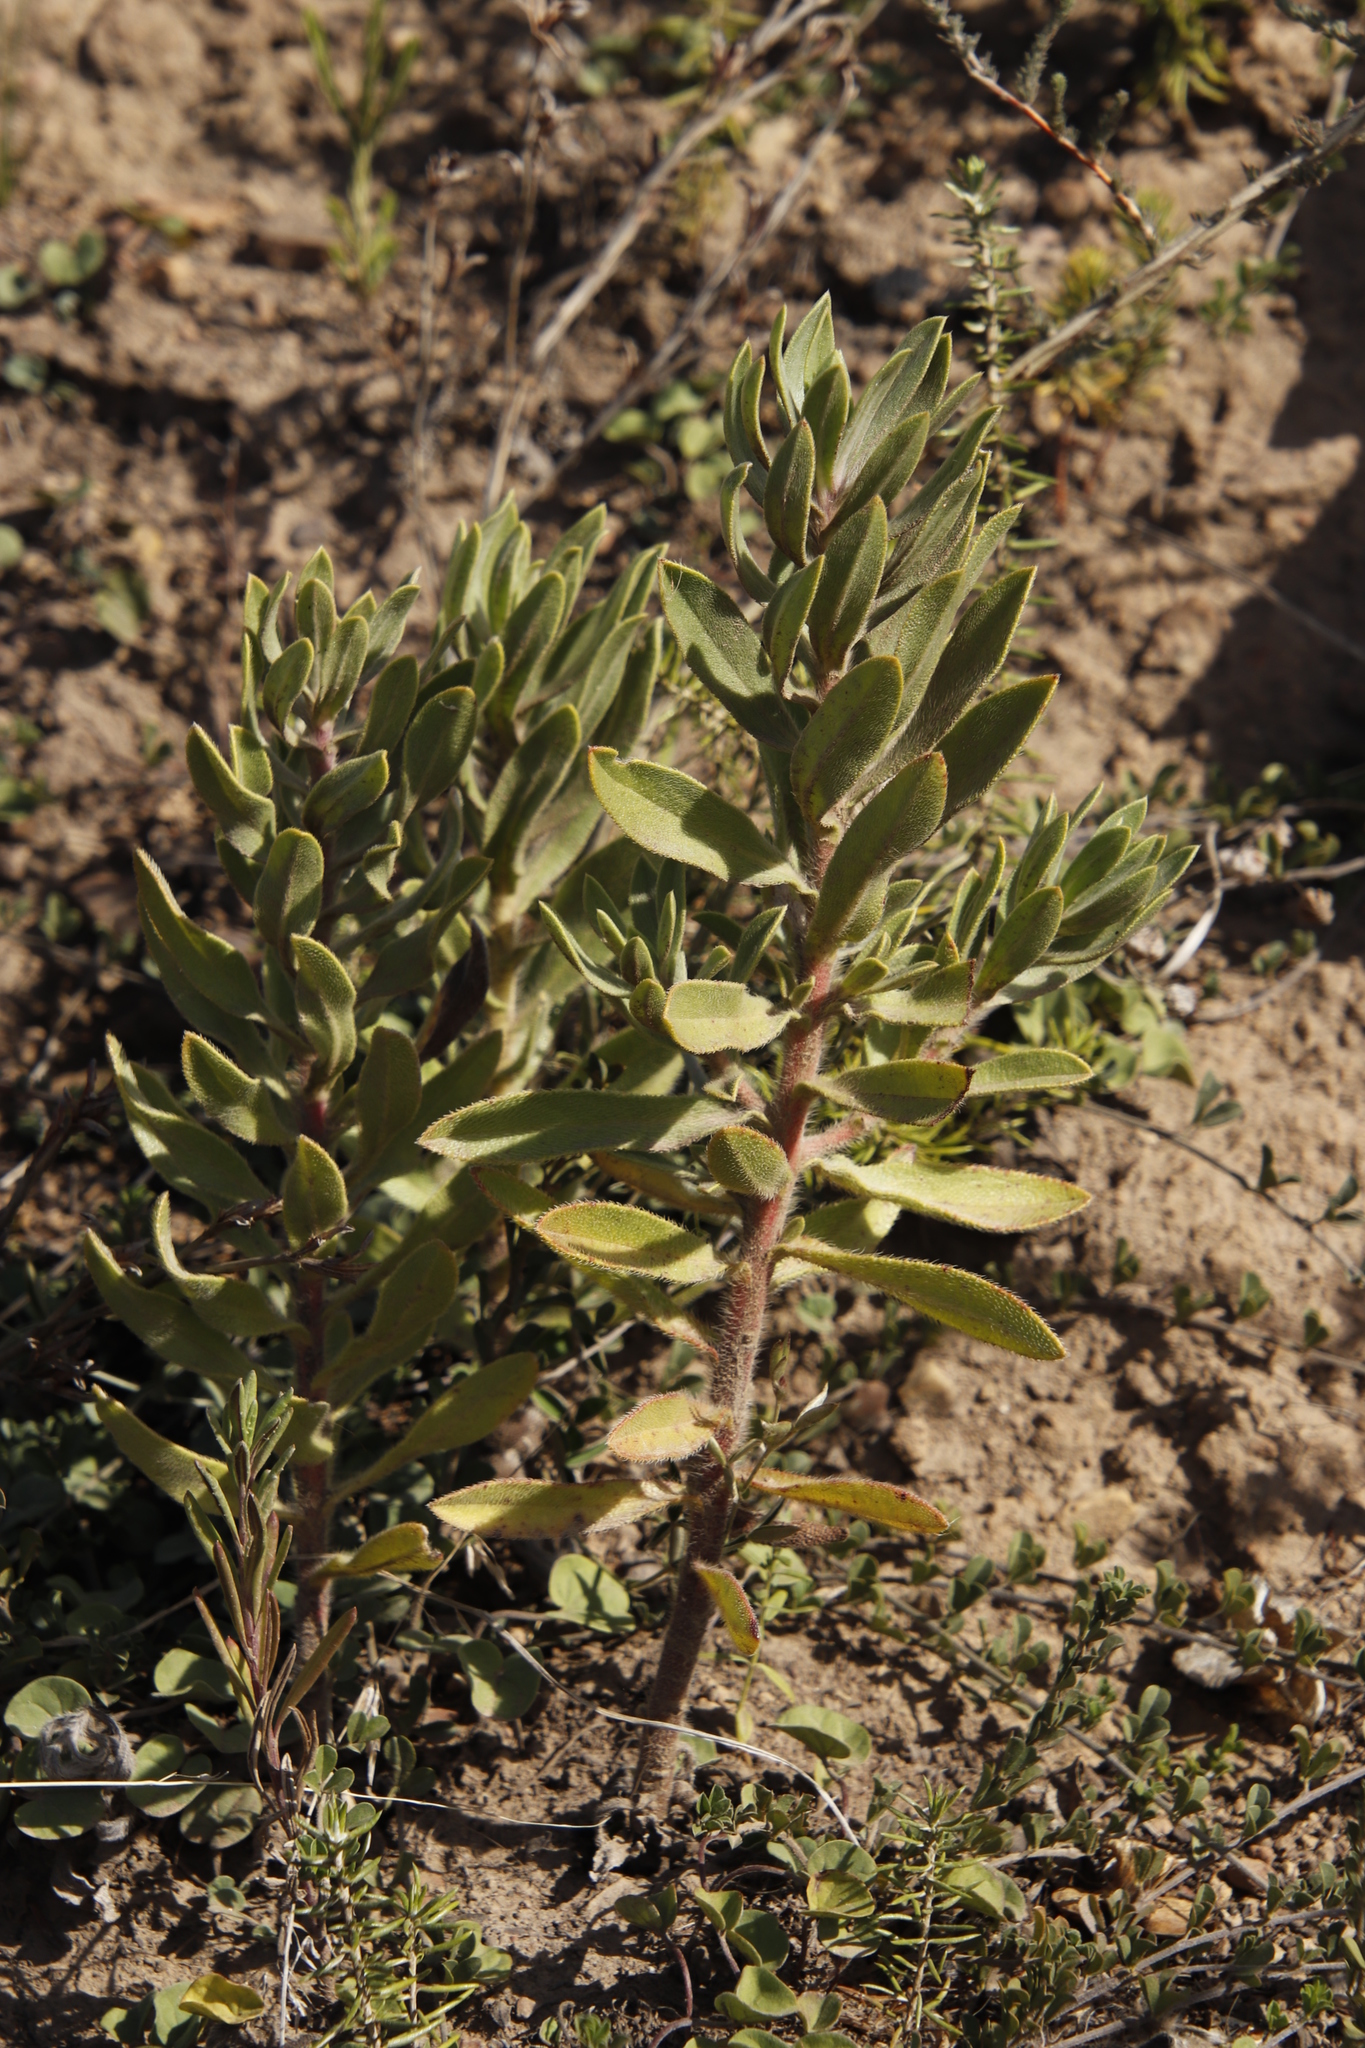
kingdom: Plantae
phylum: Tracheophyta
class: Magnoliopsida
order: Boraginales
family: Boraginaceae
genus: Lobostemon
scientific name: Lobostemon fruticosus
